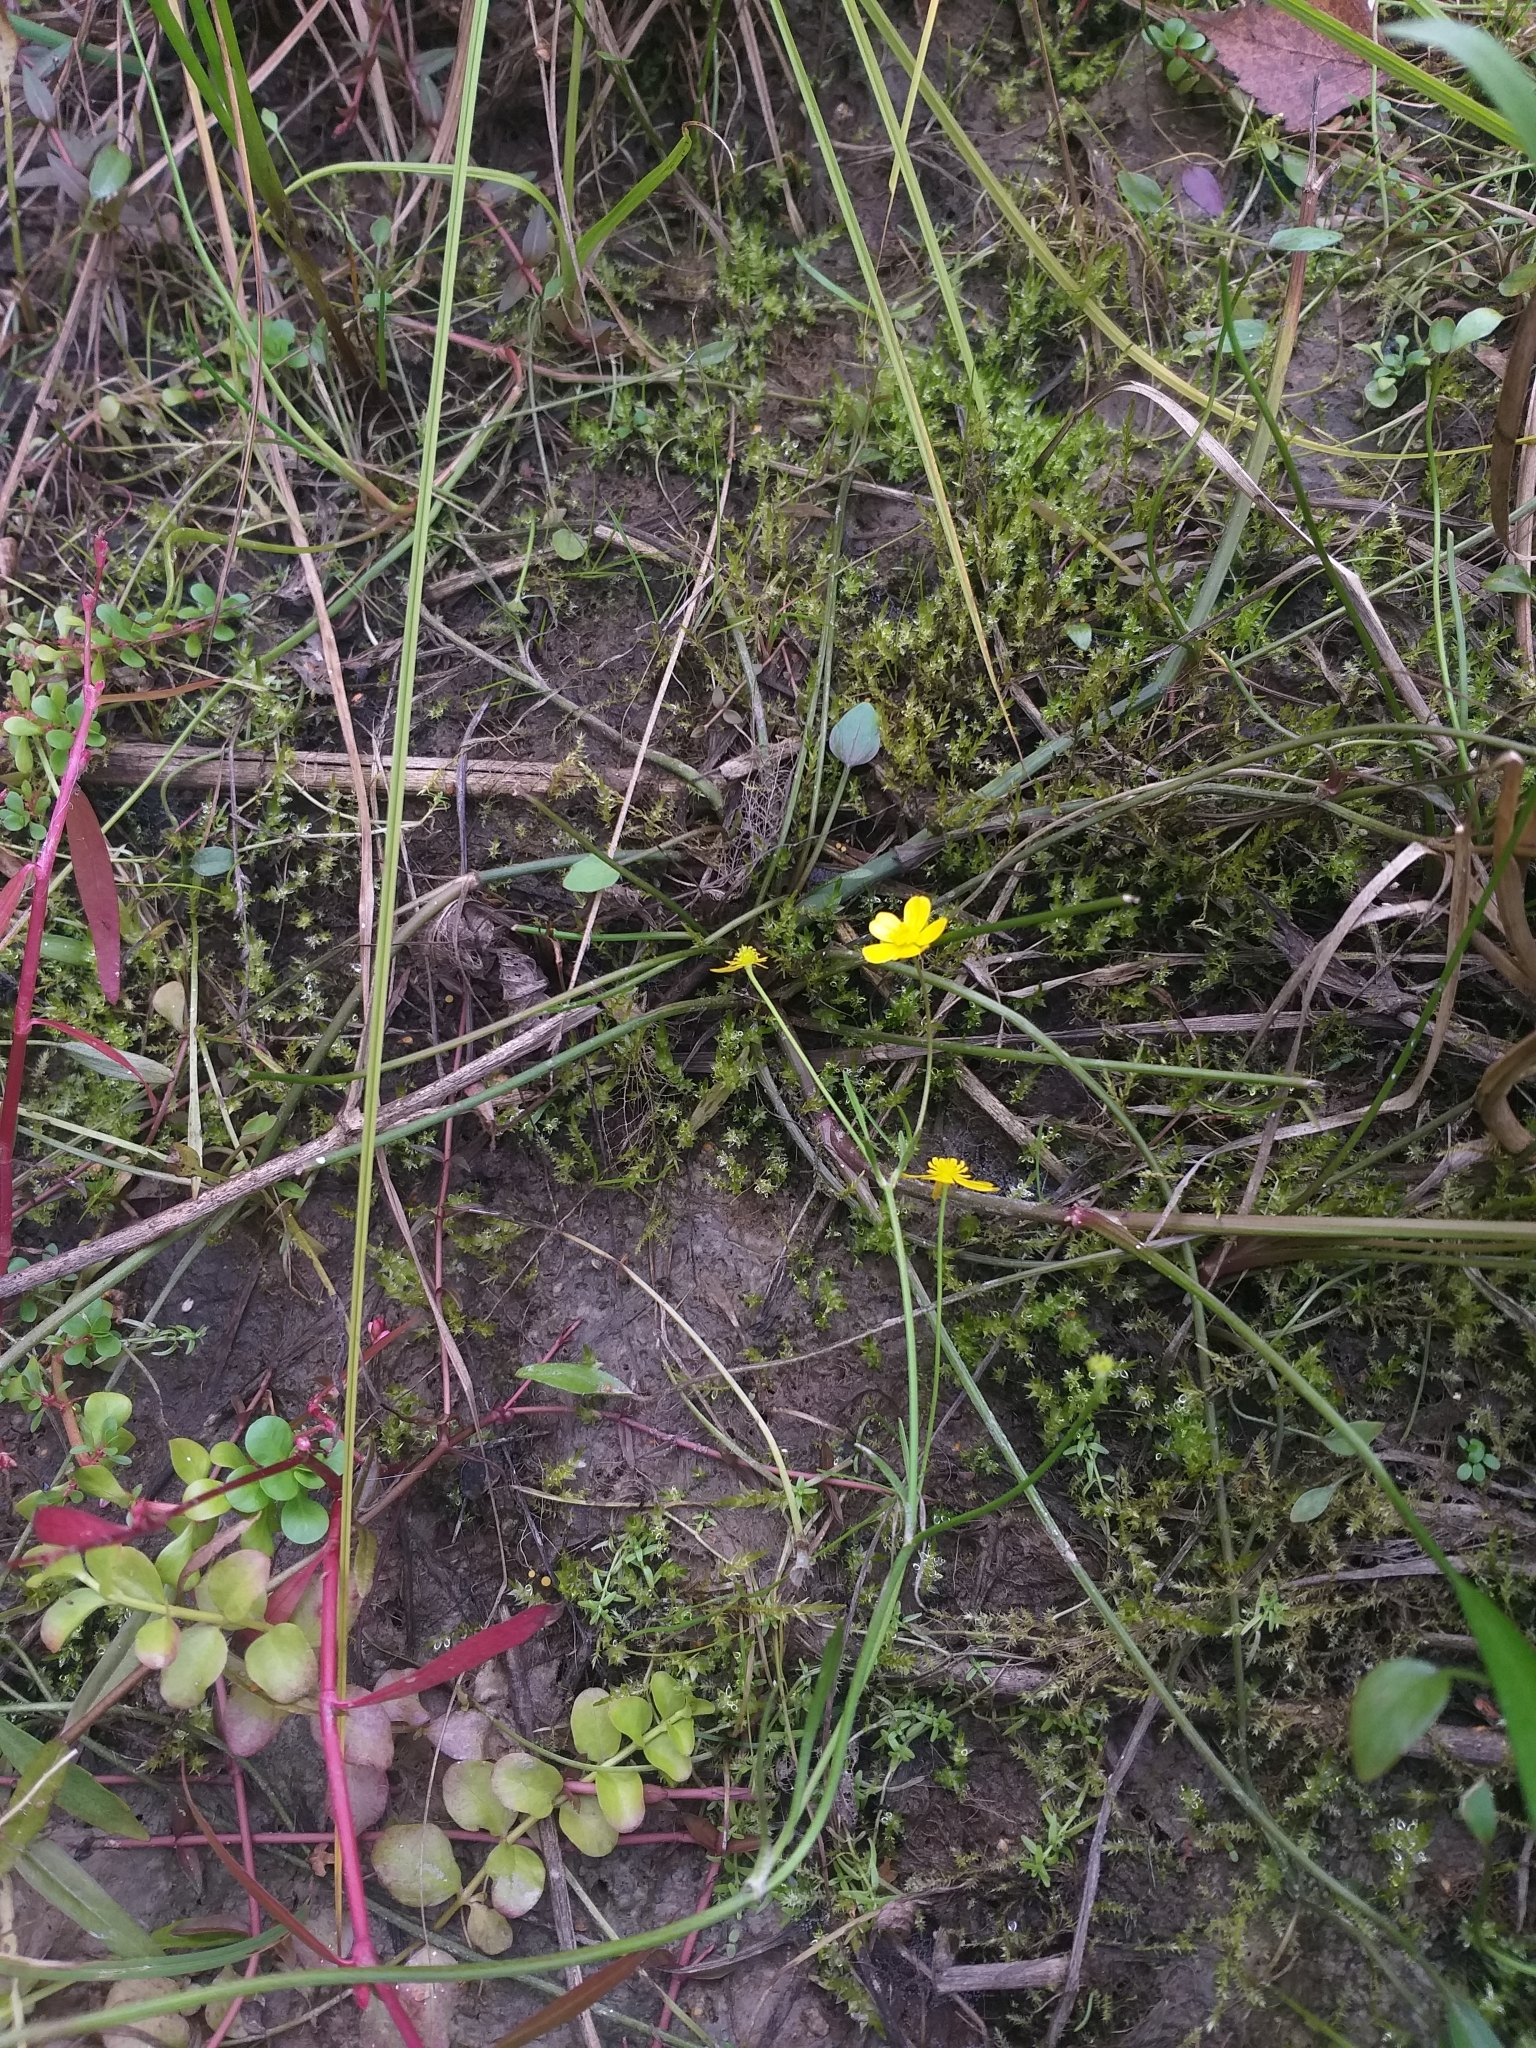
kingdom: Plantae
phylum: Tracheophyta
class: Magnoliopsida
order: Ranunculales
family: Ranunculaceae
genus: Ranunculus
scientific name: Ranunculus flammula
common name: Lesser spearwort
